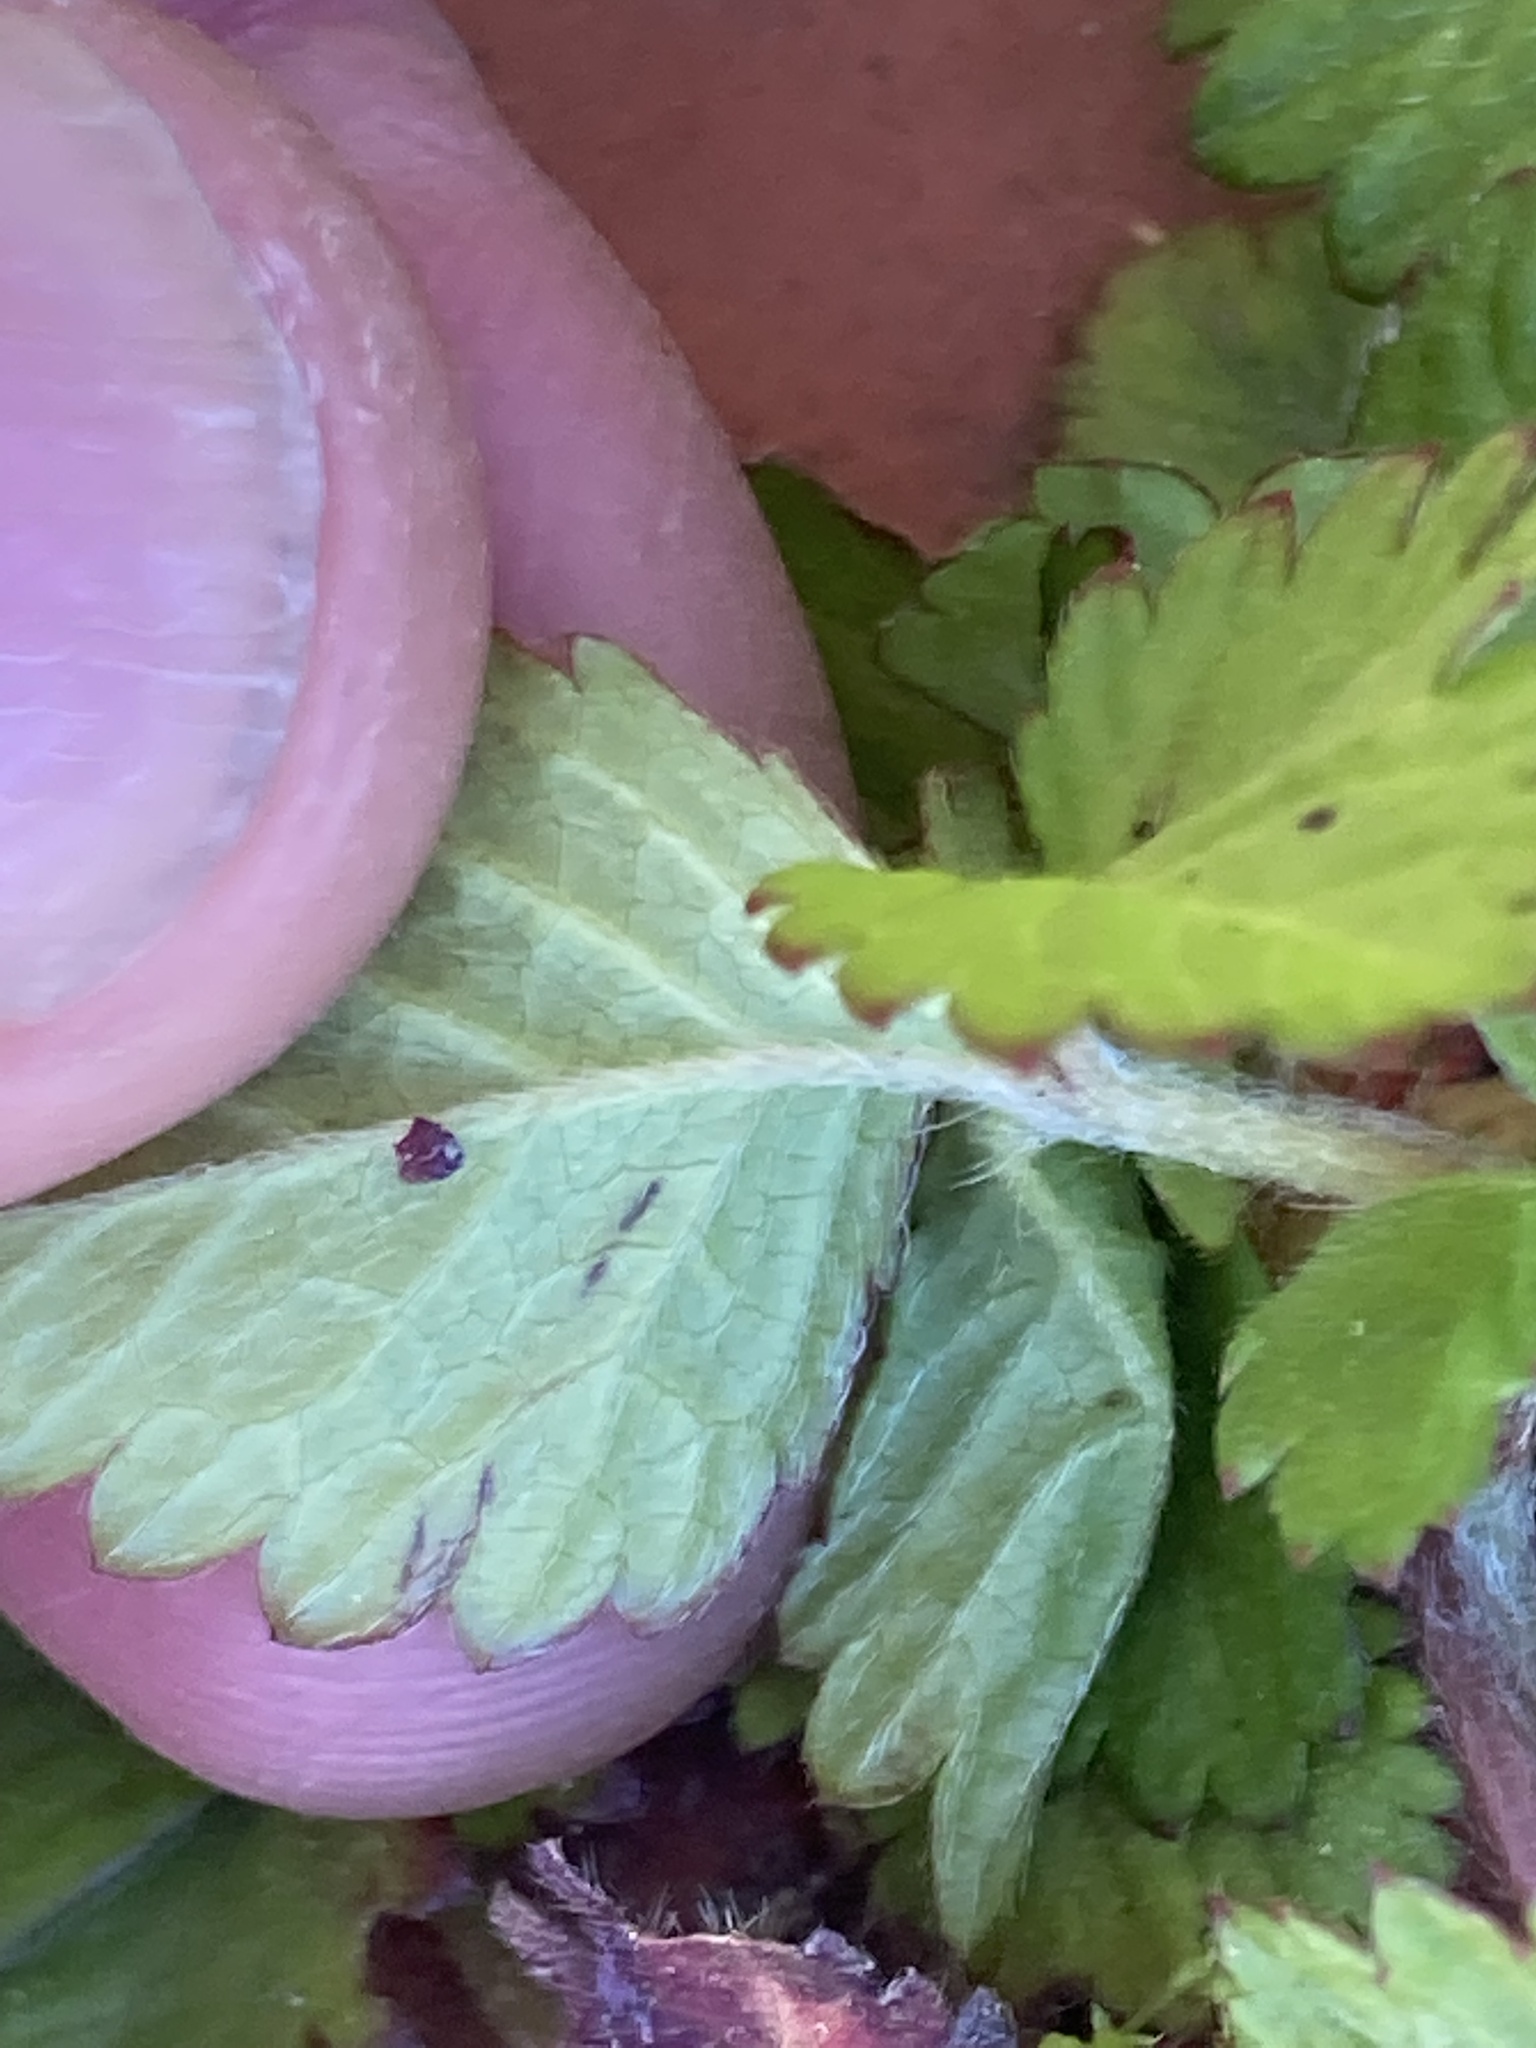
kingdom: Plantae
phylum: Tracheophyta
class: Magnoliopsida
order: Rosales
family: Rosaceae
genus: Potentilla
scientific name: Potentilla indica
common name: Yellow-flowered strawberry
